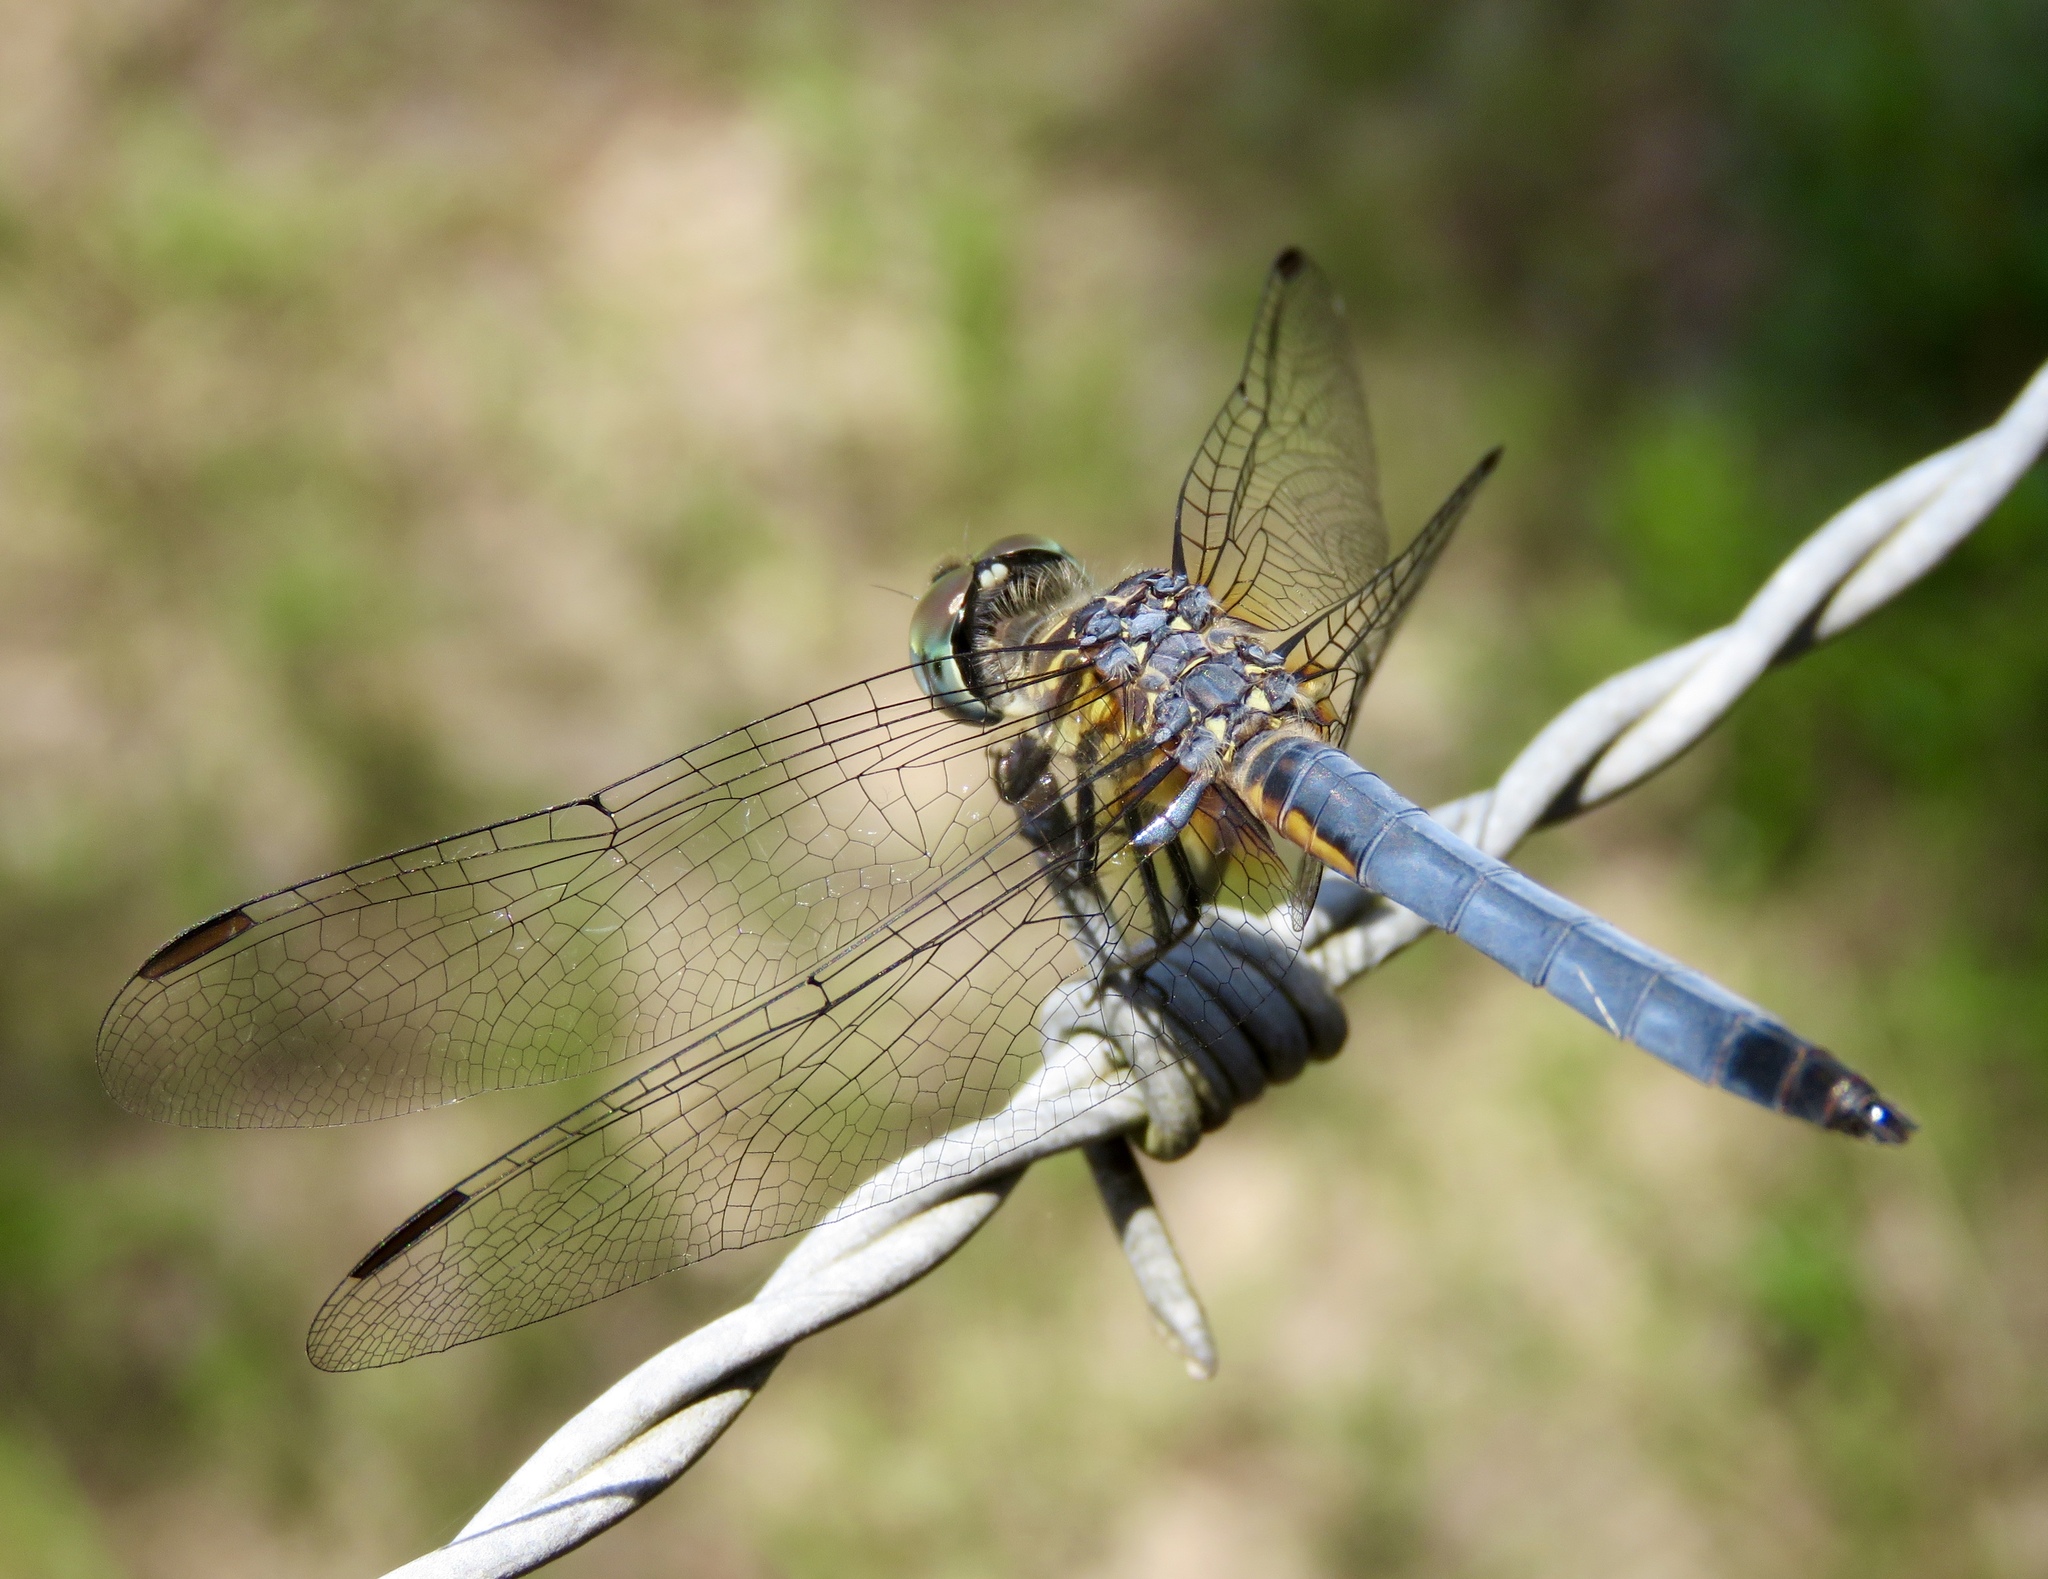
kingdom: Animalia
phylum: Arthropoda
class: Insecta
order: Odonata
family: Libellulidae
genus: Pachydiplax
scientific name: Pachydiplax longipennis
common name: Blue dasher
